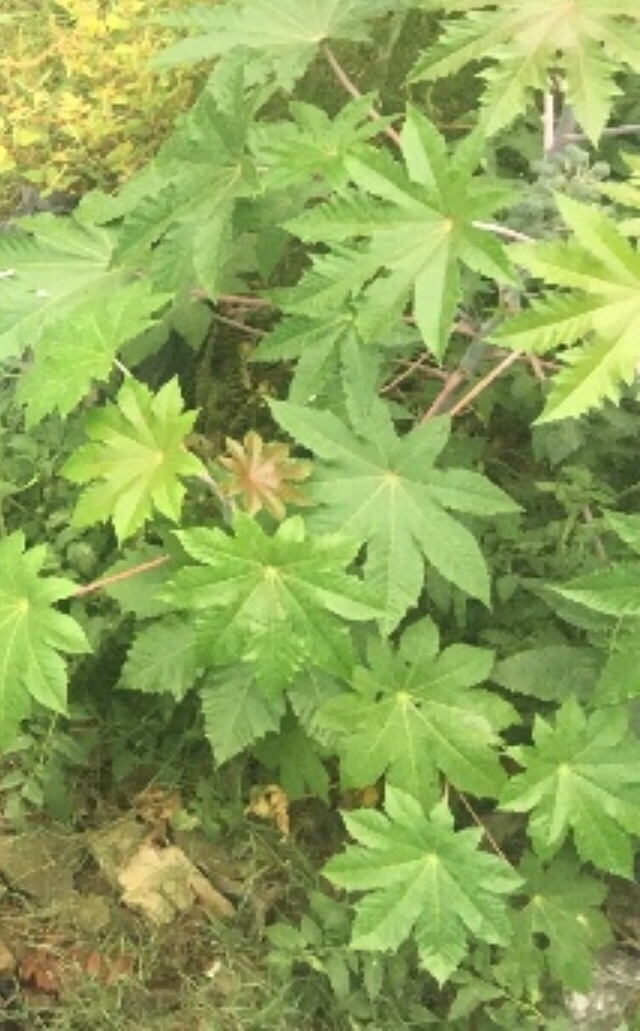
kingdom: Plantae
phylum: Tracheophyta
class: Magnoliopsida
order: Malpighiales
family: Euphorbiaceae
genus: Ricinus
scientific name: Ricinus communis
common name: Castor-oil-plant
